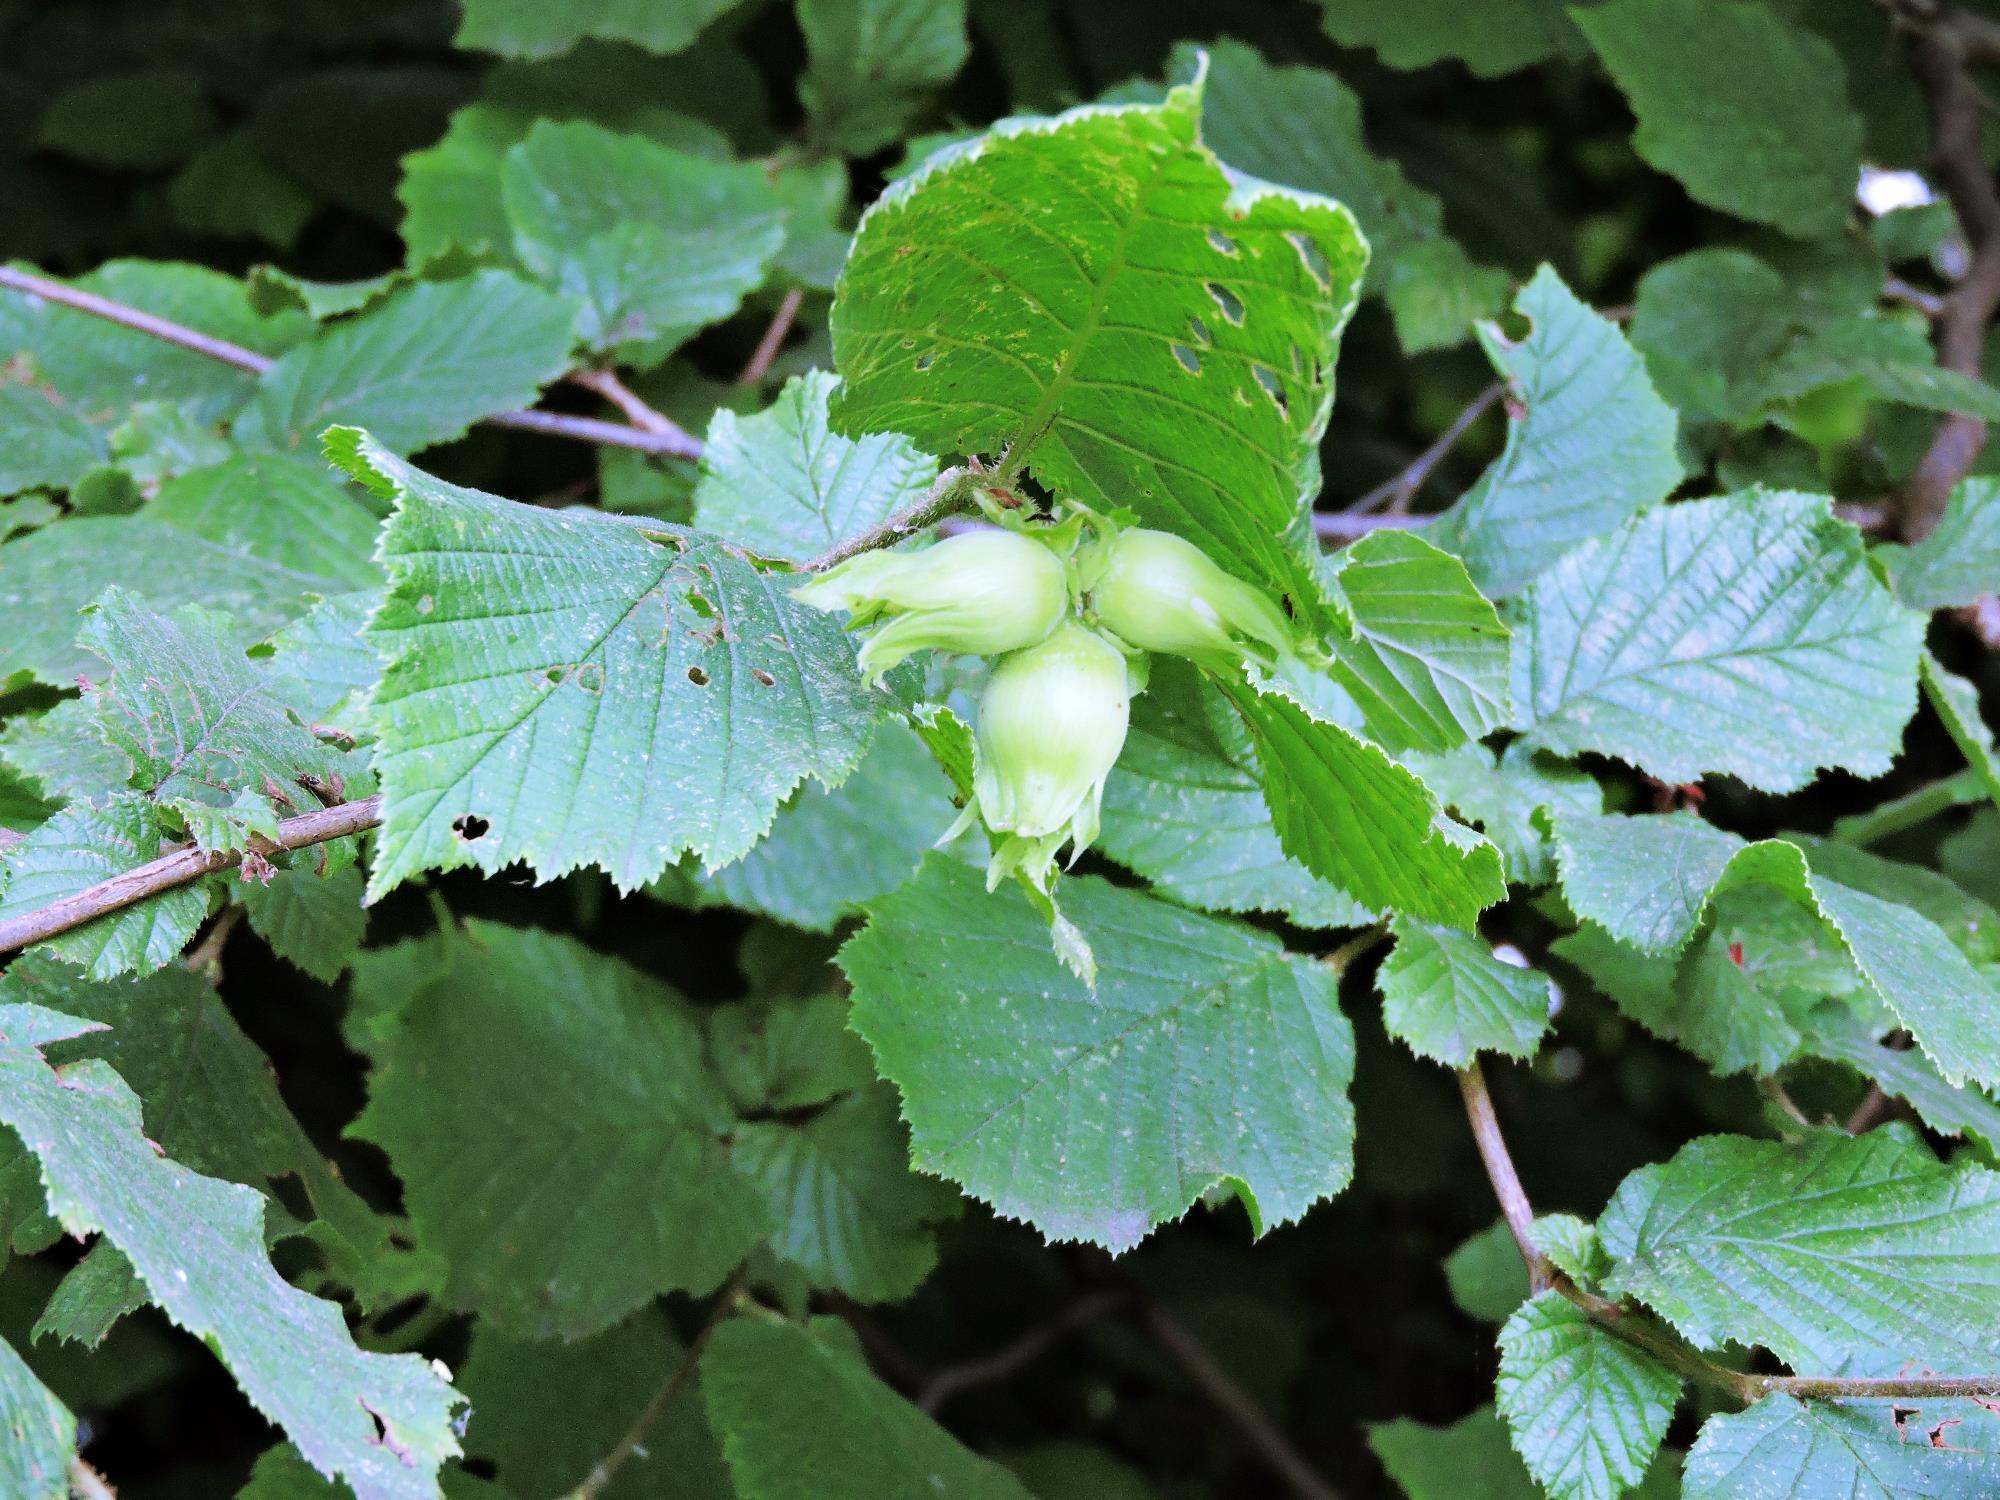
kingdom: Plantae
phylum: Tracheophyta
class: Magnoliopsida
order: Fagales
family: Betulaceae
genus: Corylus
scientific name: Corylus avellana
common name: European hazel
